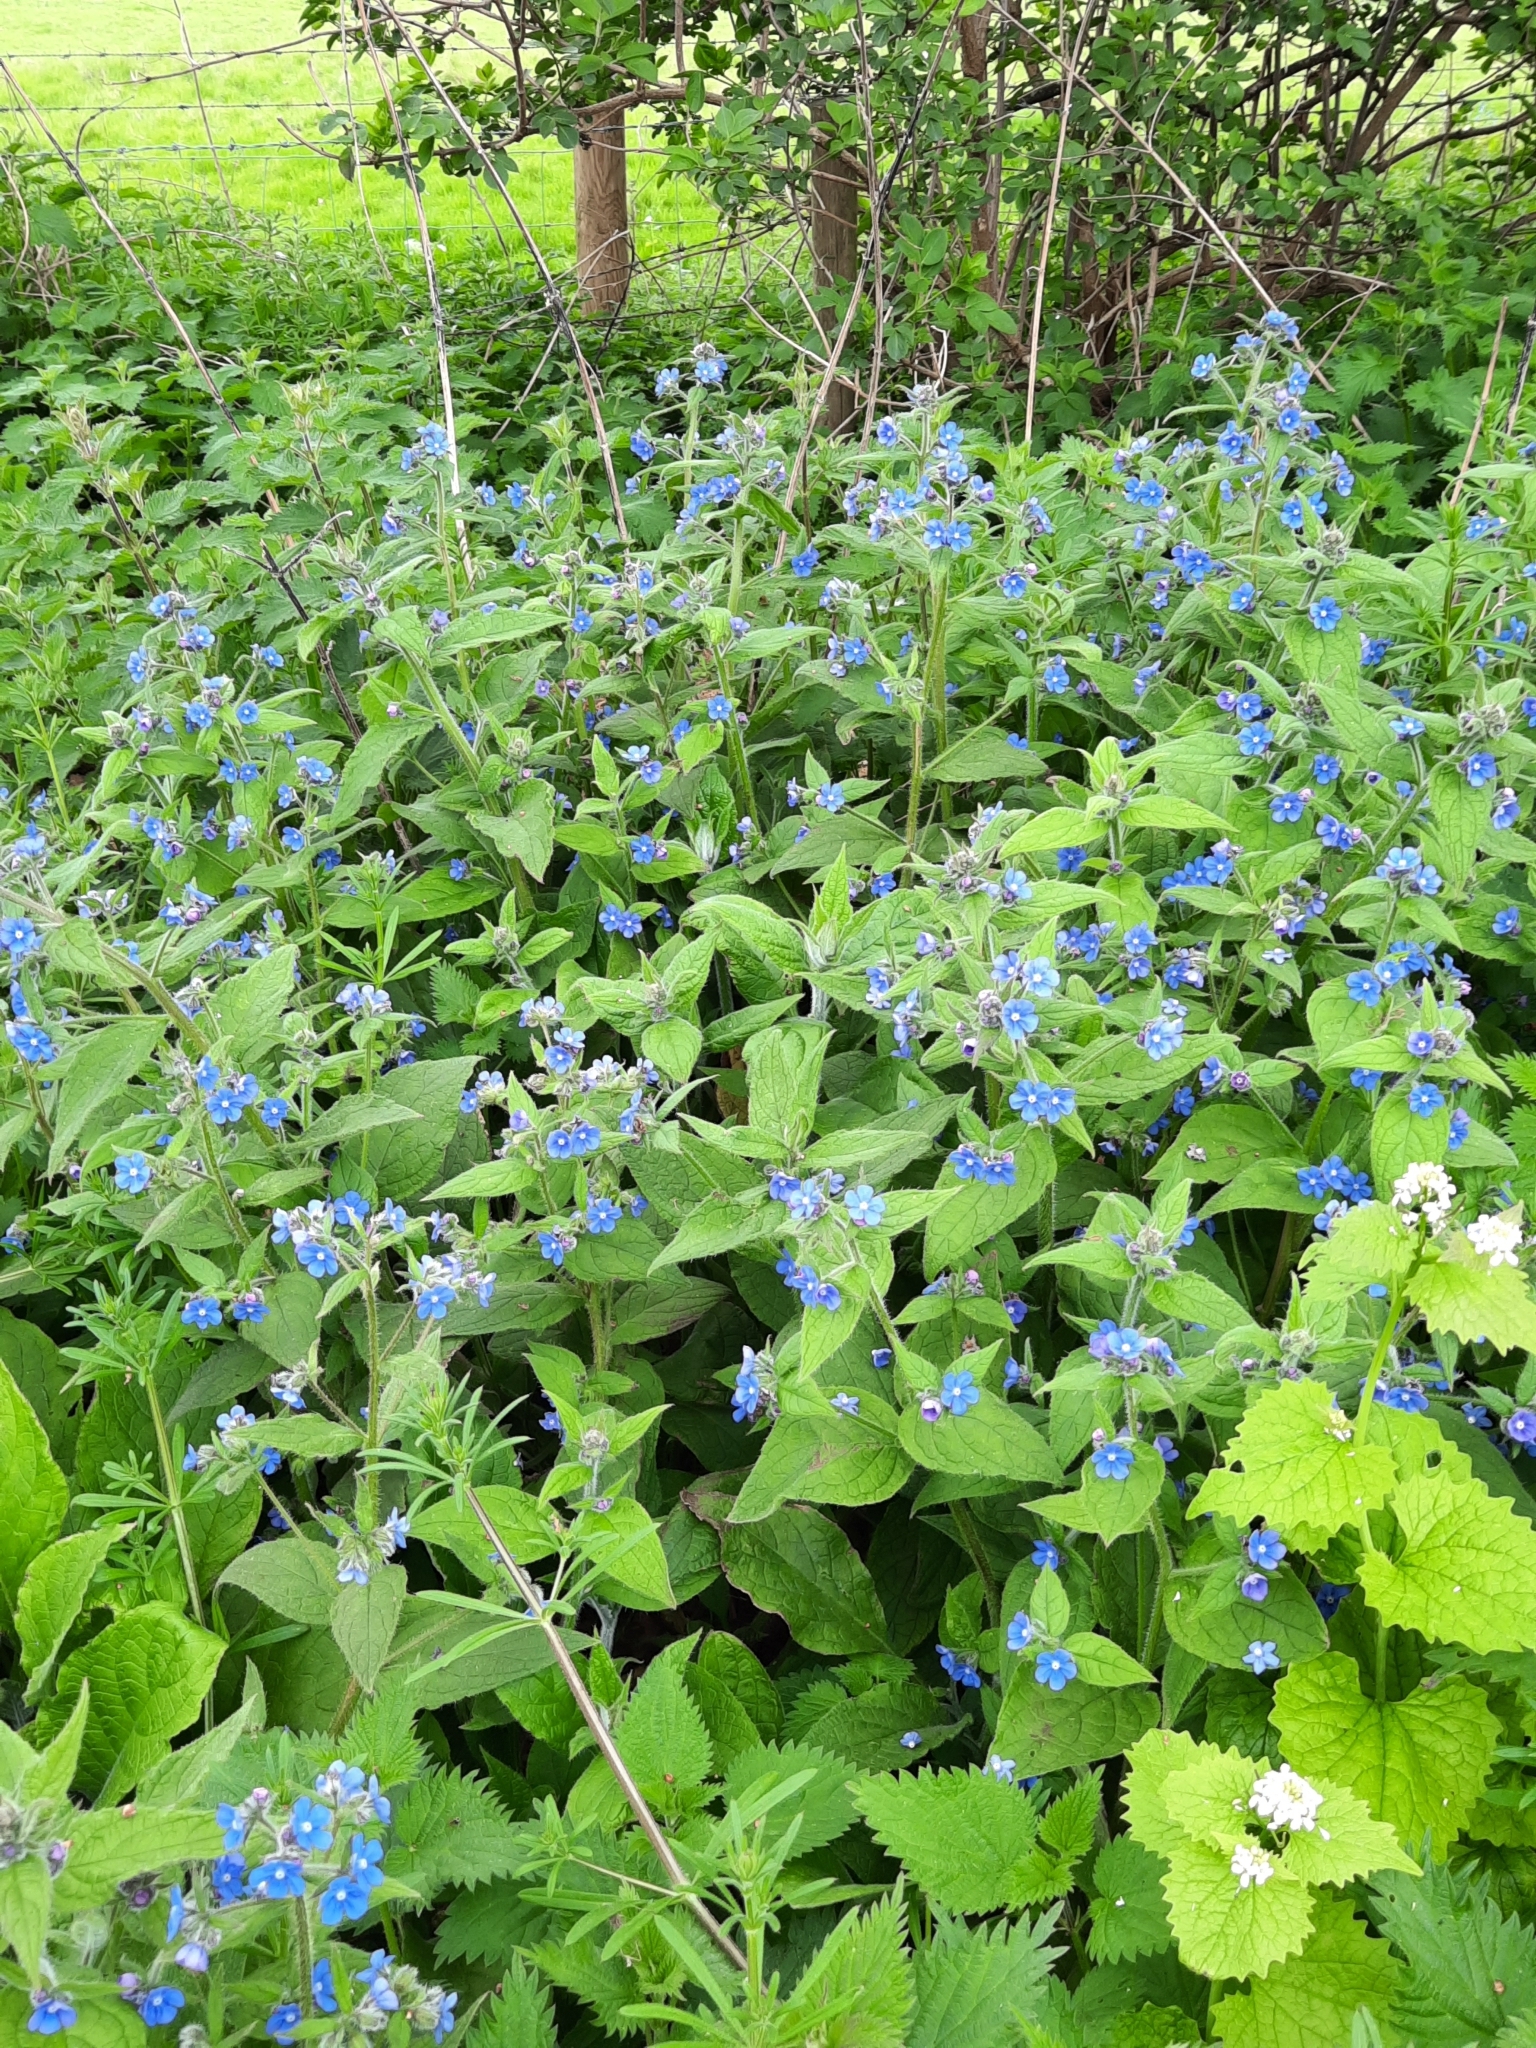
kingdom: Plantae
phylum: Tracheophyta
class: Magnoliopsida
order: Boraginales
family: Boraginaceae
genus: Pentaglottis
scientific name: Pentaglottis sempervirens
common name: Green alkanet
